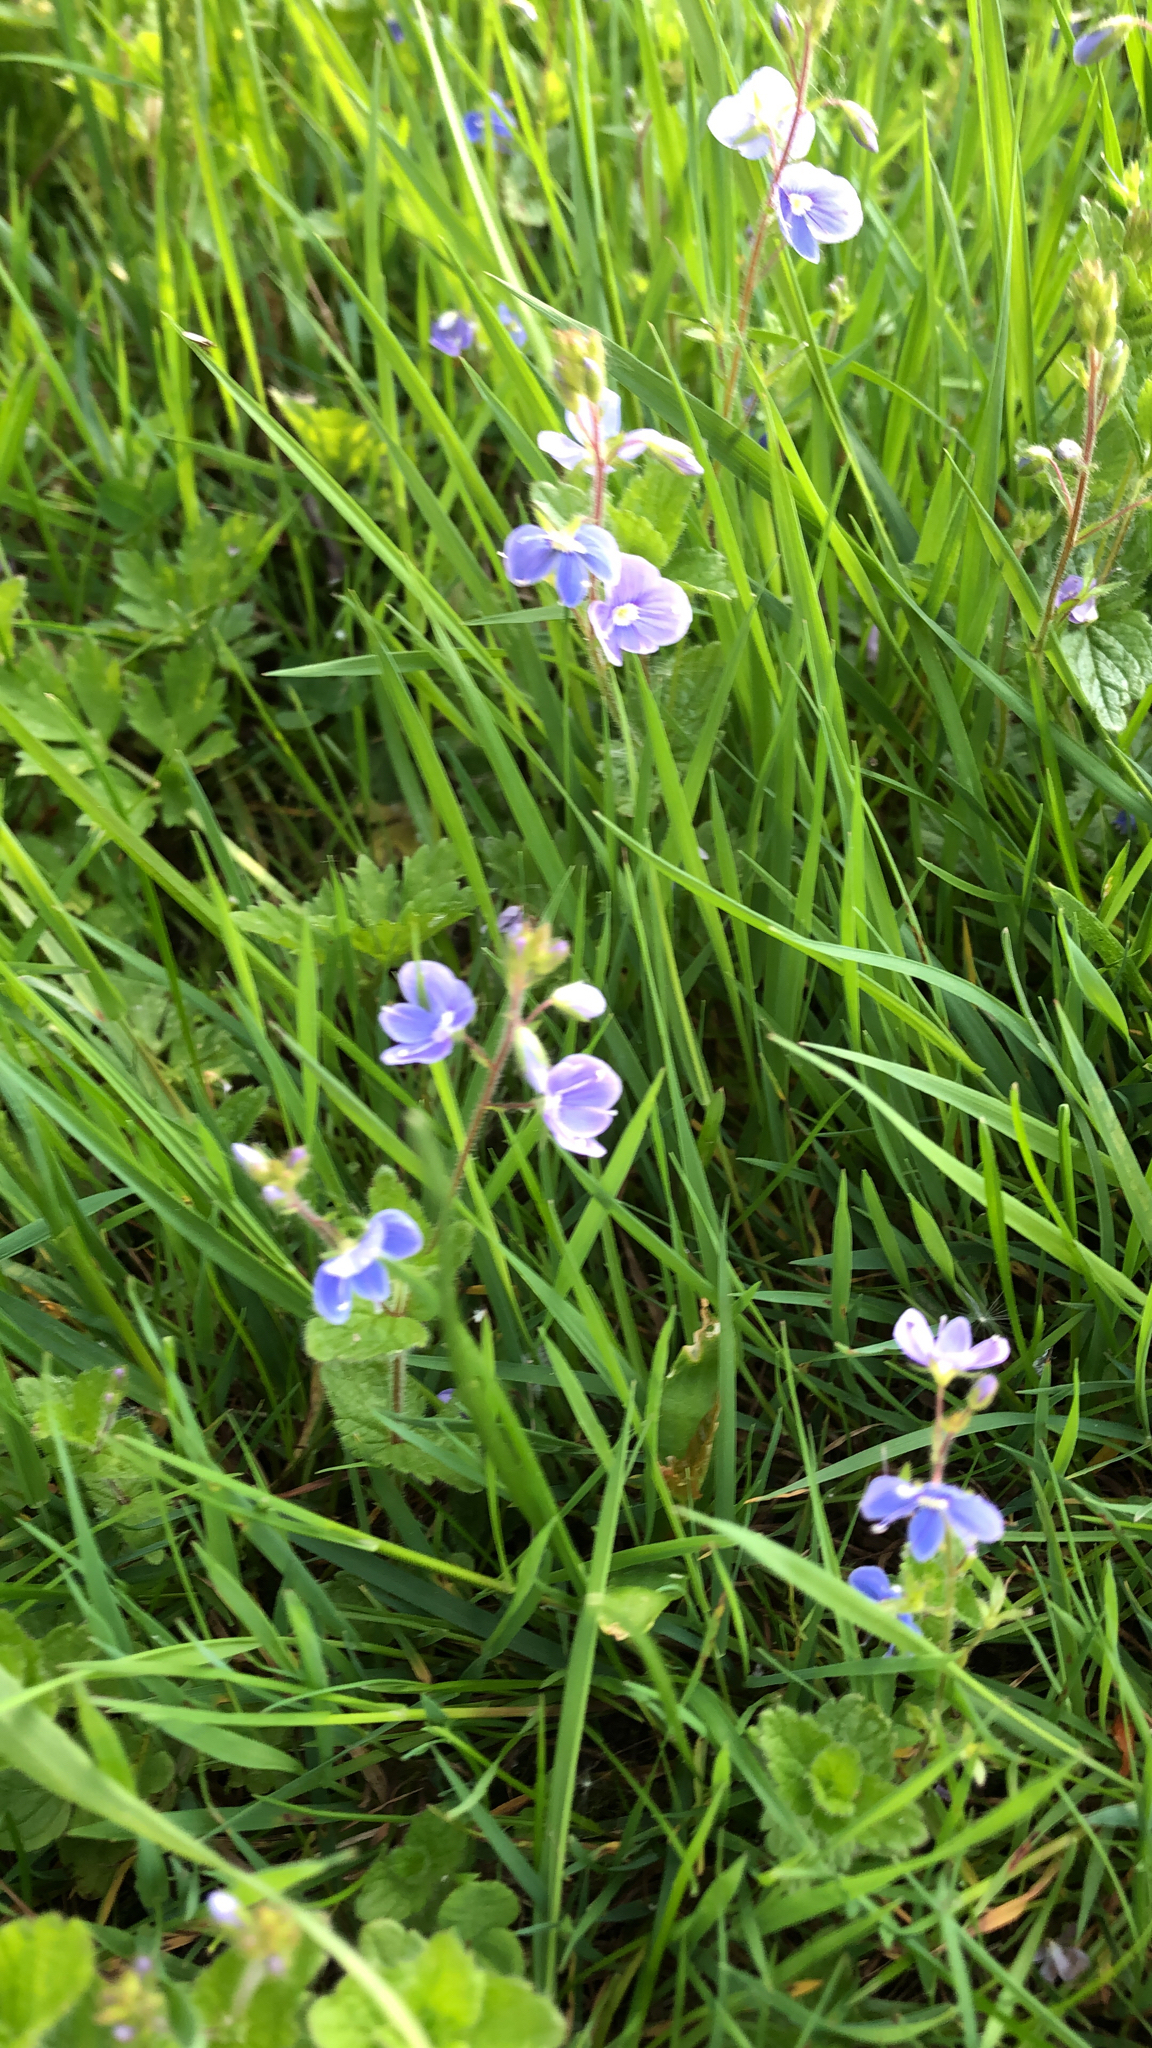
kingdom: Plantae
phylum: Tracheophyta
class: Magnoliopsida
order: Lamiales
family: Plantaginaceae
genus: Veronica
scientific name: Veronica chamaedrys
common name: Germander speedwell
